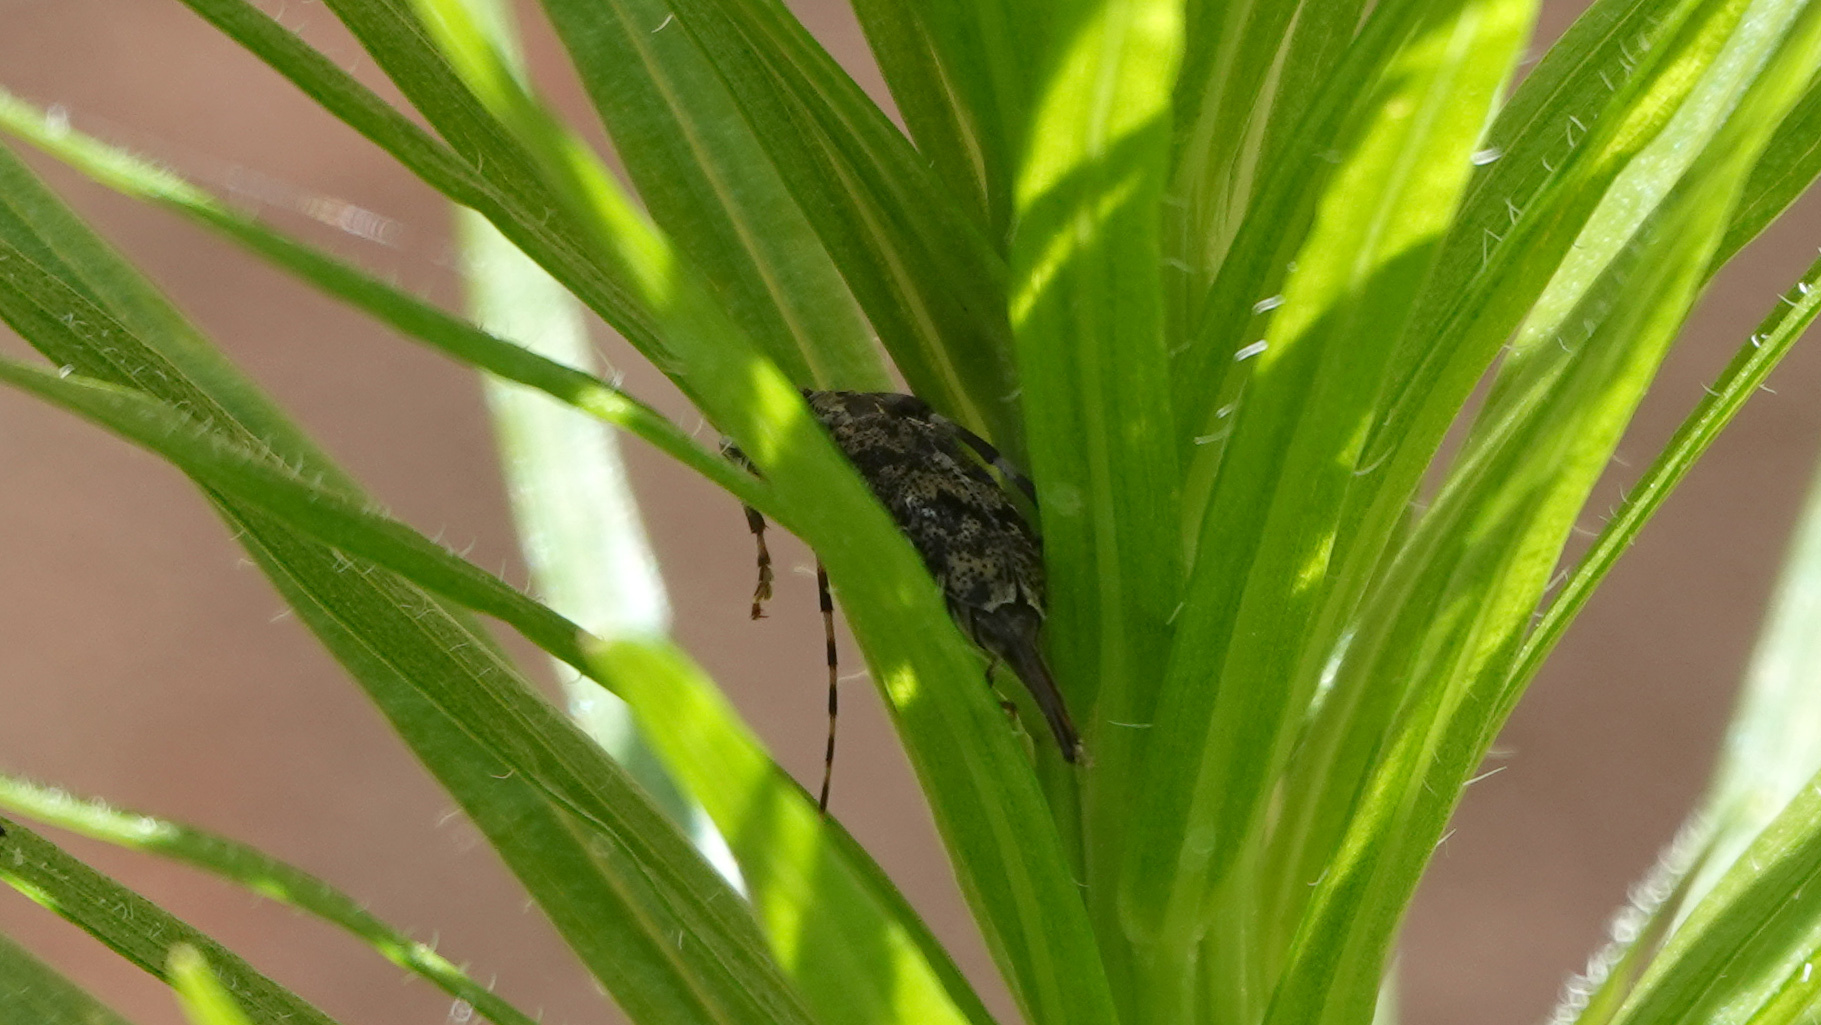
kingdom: Animalia
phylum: Arthropoda
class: Insecta
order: Coleoptera
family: Cerambycidae
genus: Graphisurus
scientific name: Graphisurus fasciatus
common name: Banded graphisurus
